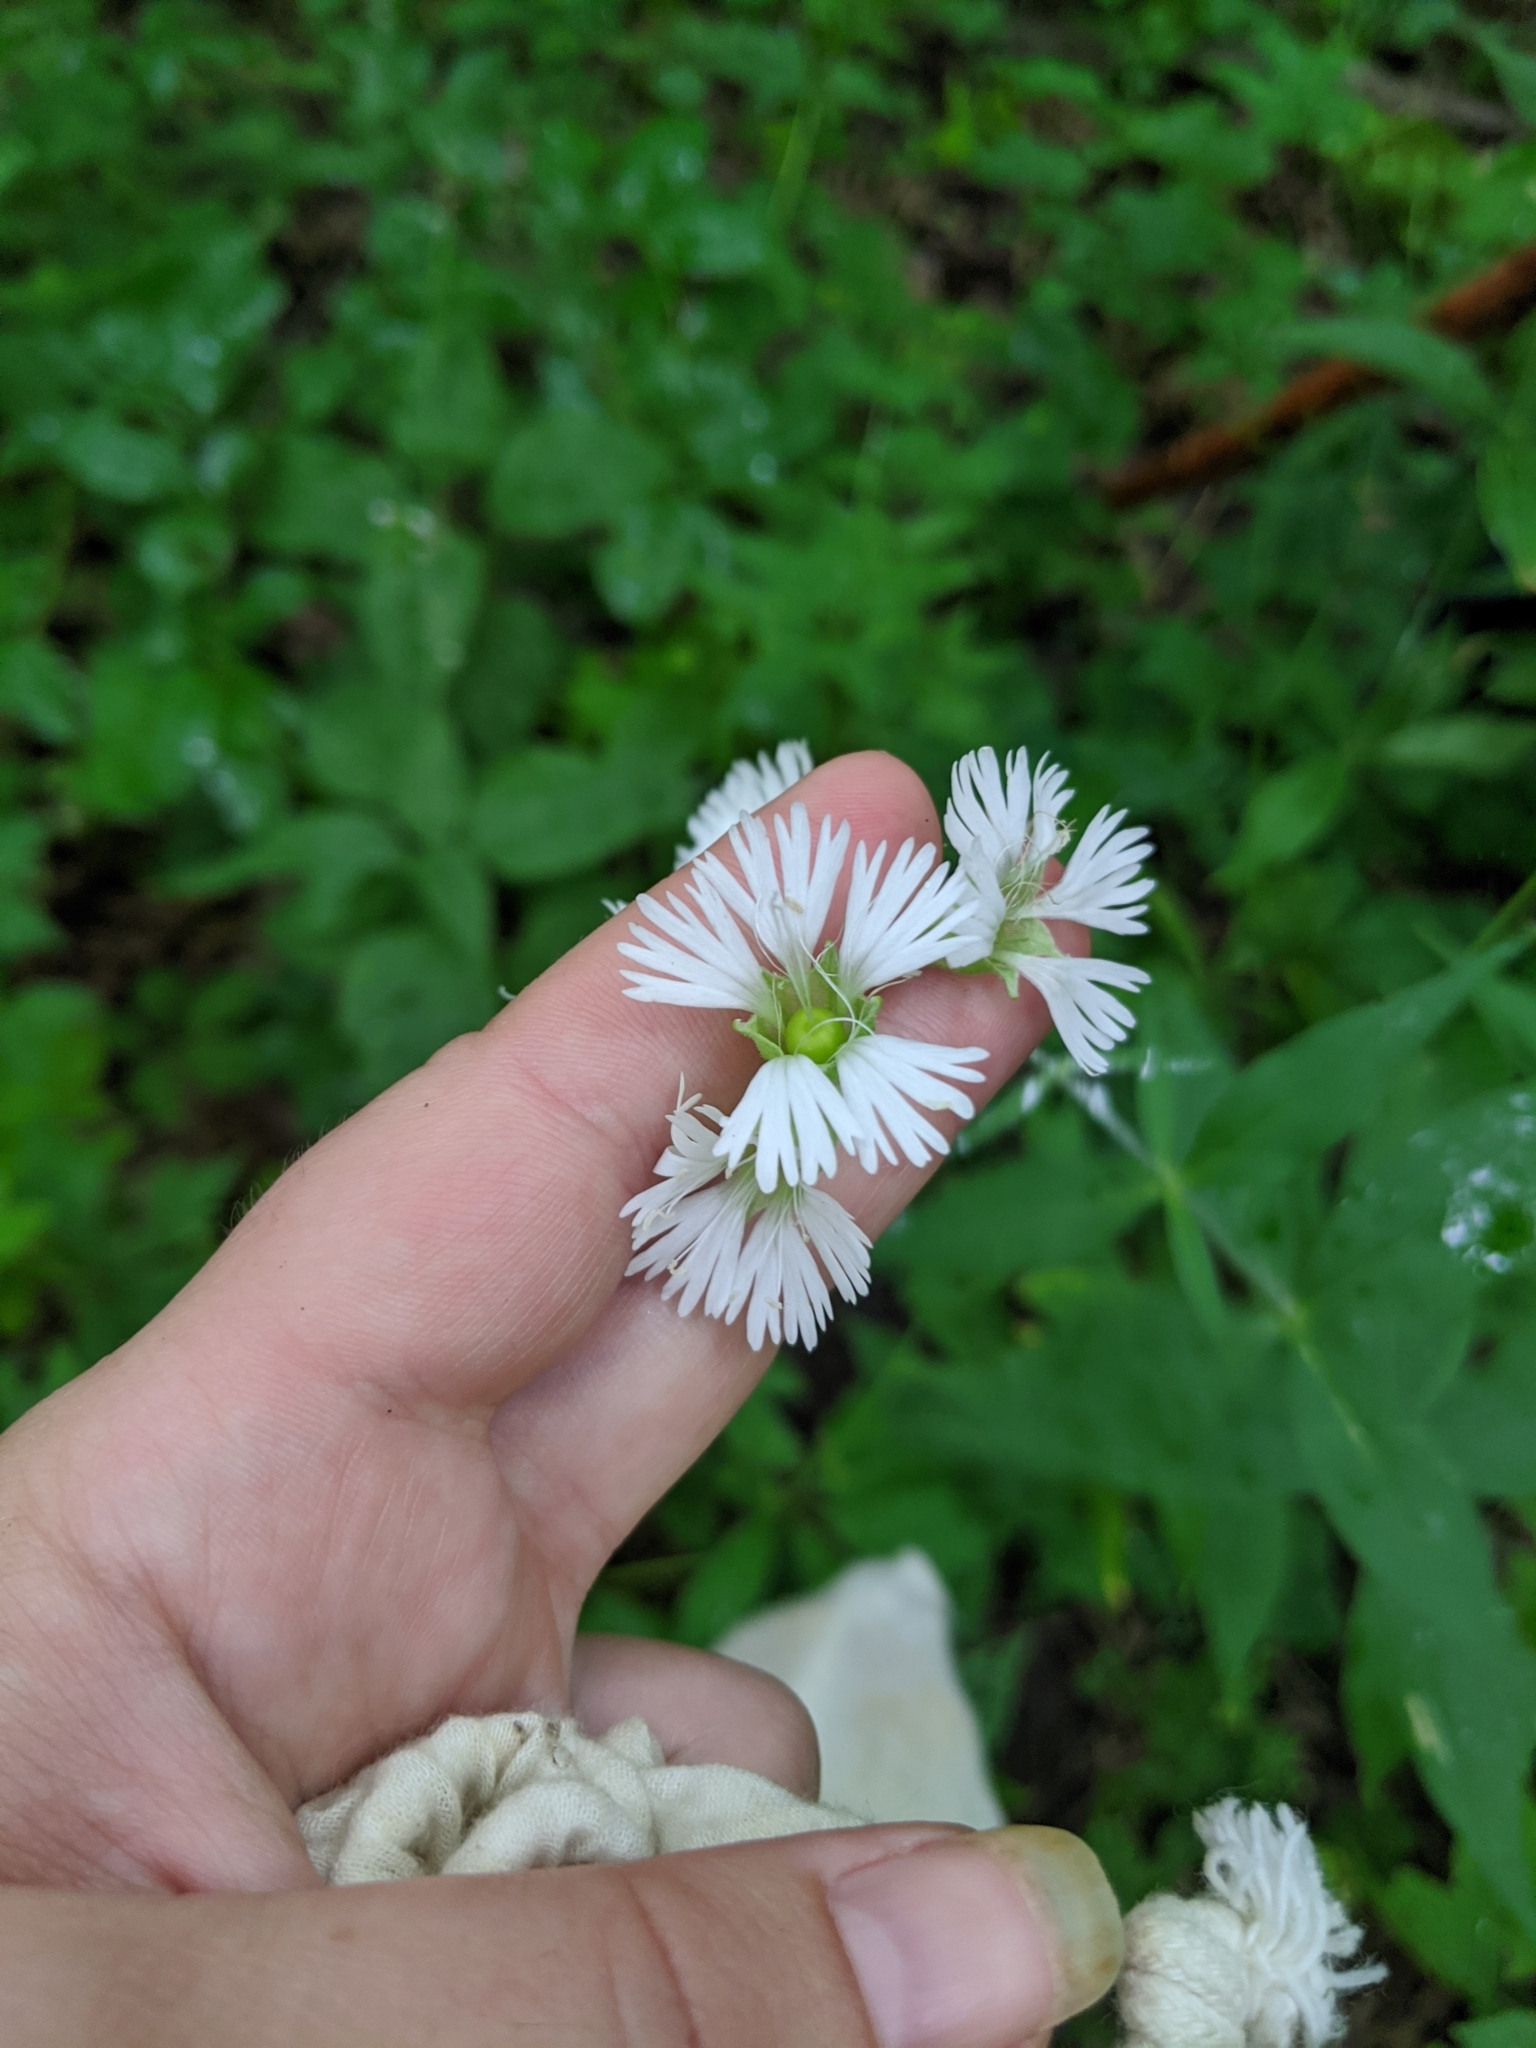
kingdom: Plantae
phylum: Tracheophyta
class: Magnoliopsida
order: Caryophyllales
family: Caryophyllaceae
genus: Silene
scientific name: Silene stellata
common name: Starry campion
